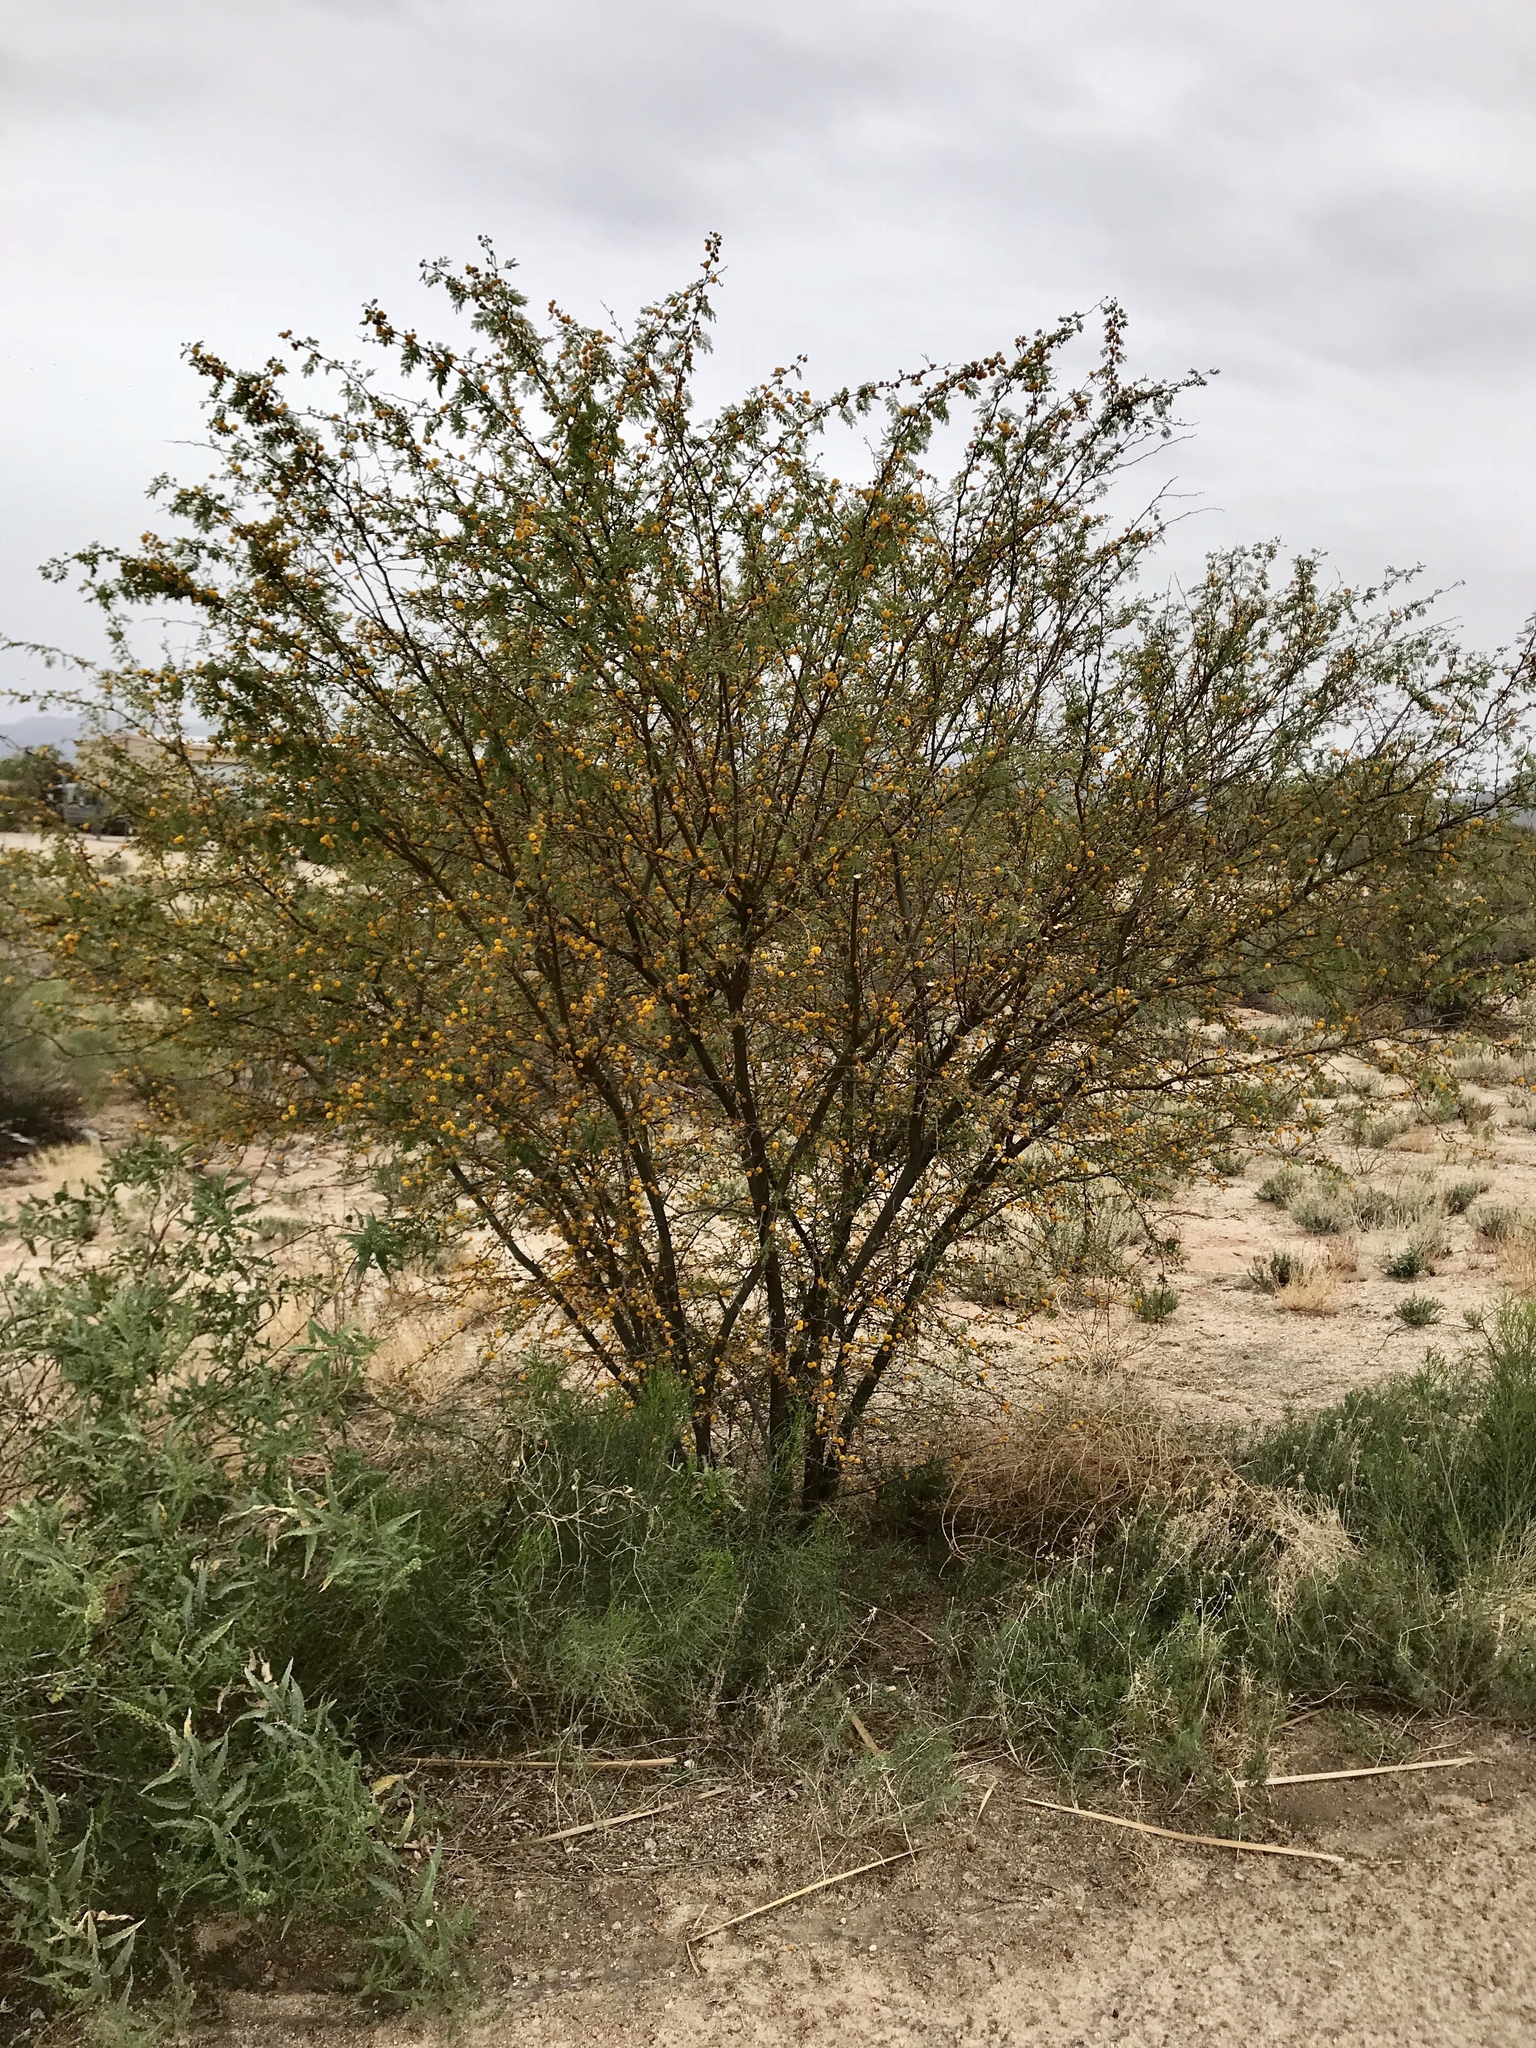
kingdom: Plantae
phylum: Tracheophyta
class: Magnoliopsida
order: Fabales
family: Fabaceae
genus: Vachellia
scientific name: Vachellia farnesiana
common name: Sweet acacia
